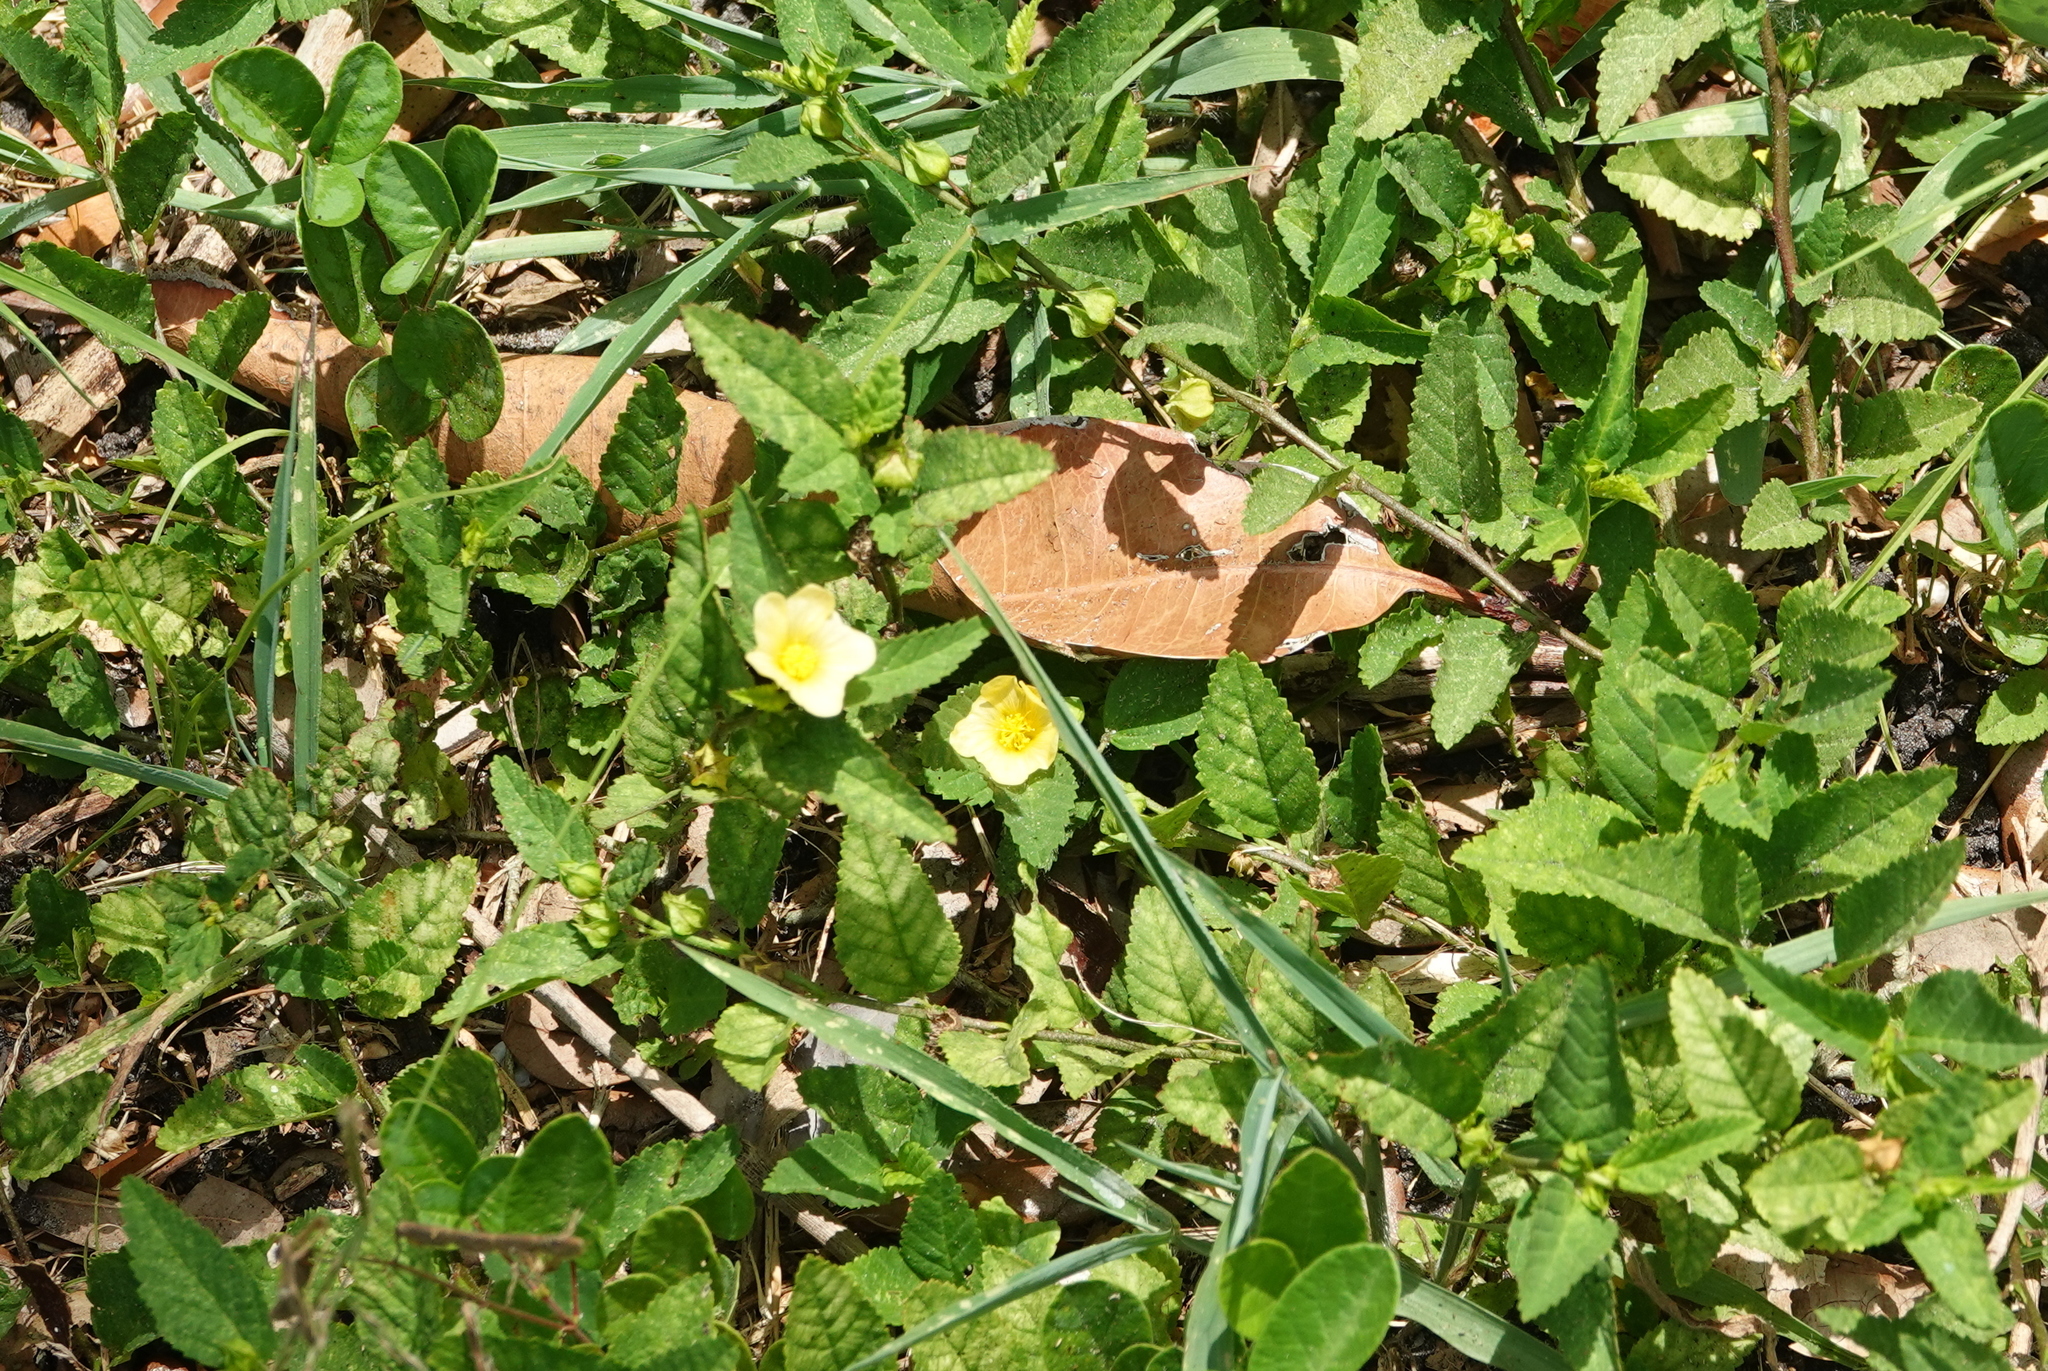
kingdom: Plantae
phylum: Tracheophyta
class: Magnoliopsida
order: Malvales
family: Malvaceae
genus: Sida
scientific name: Sida rhombifolia
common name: Queensland-hemp
